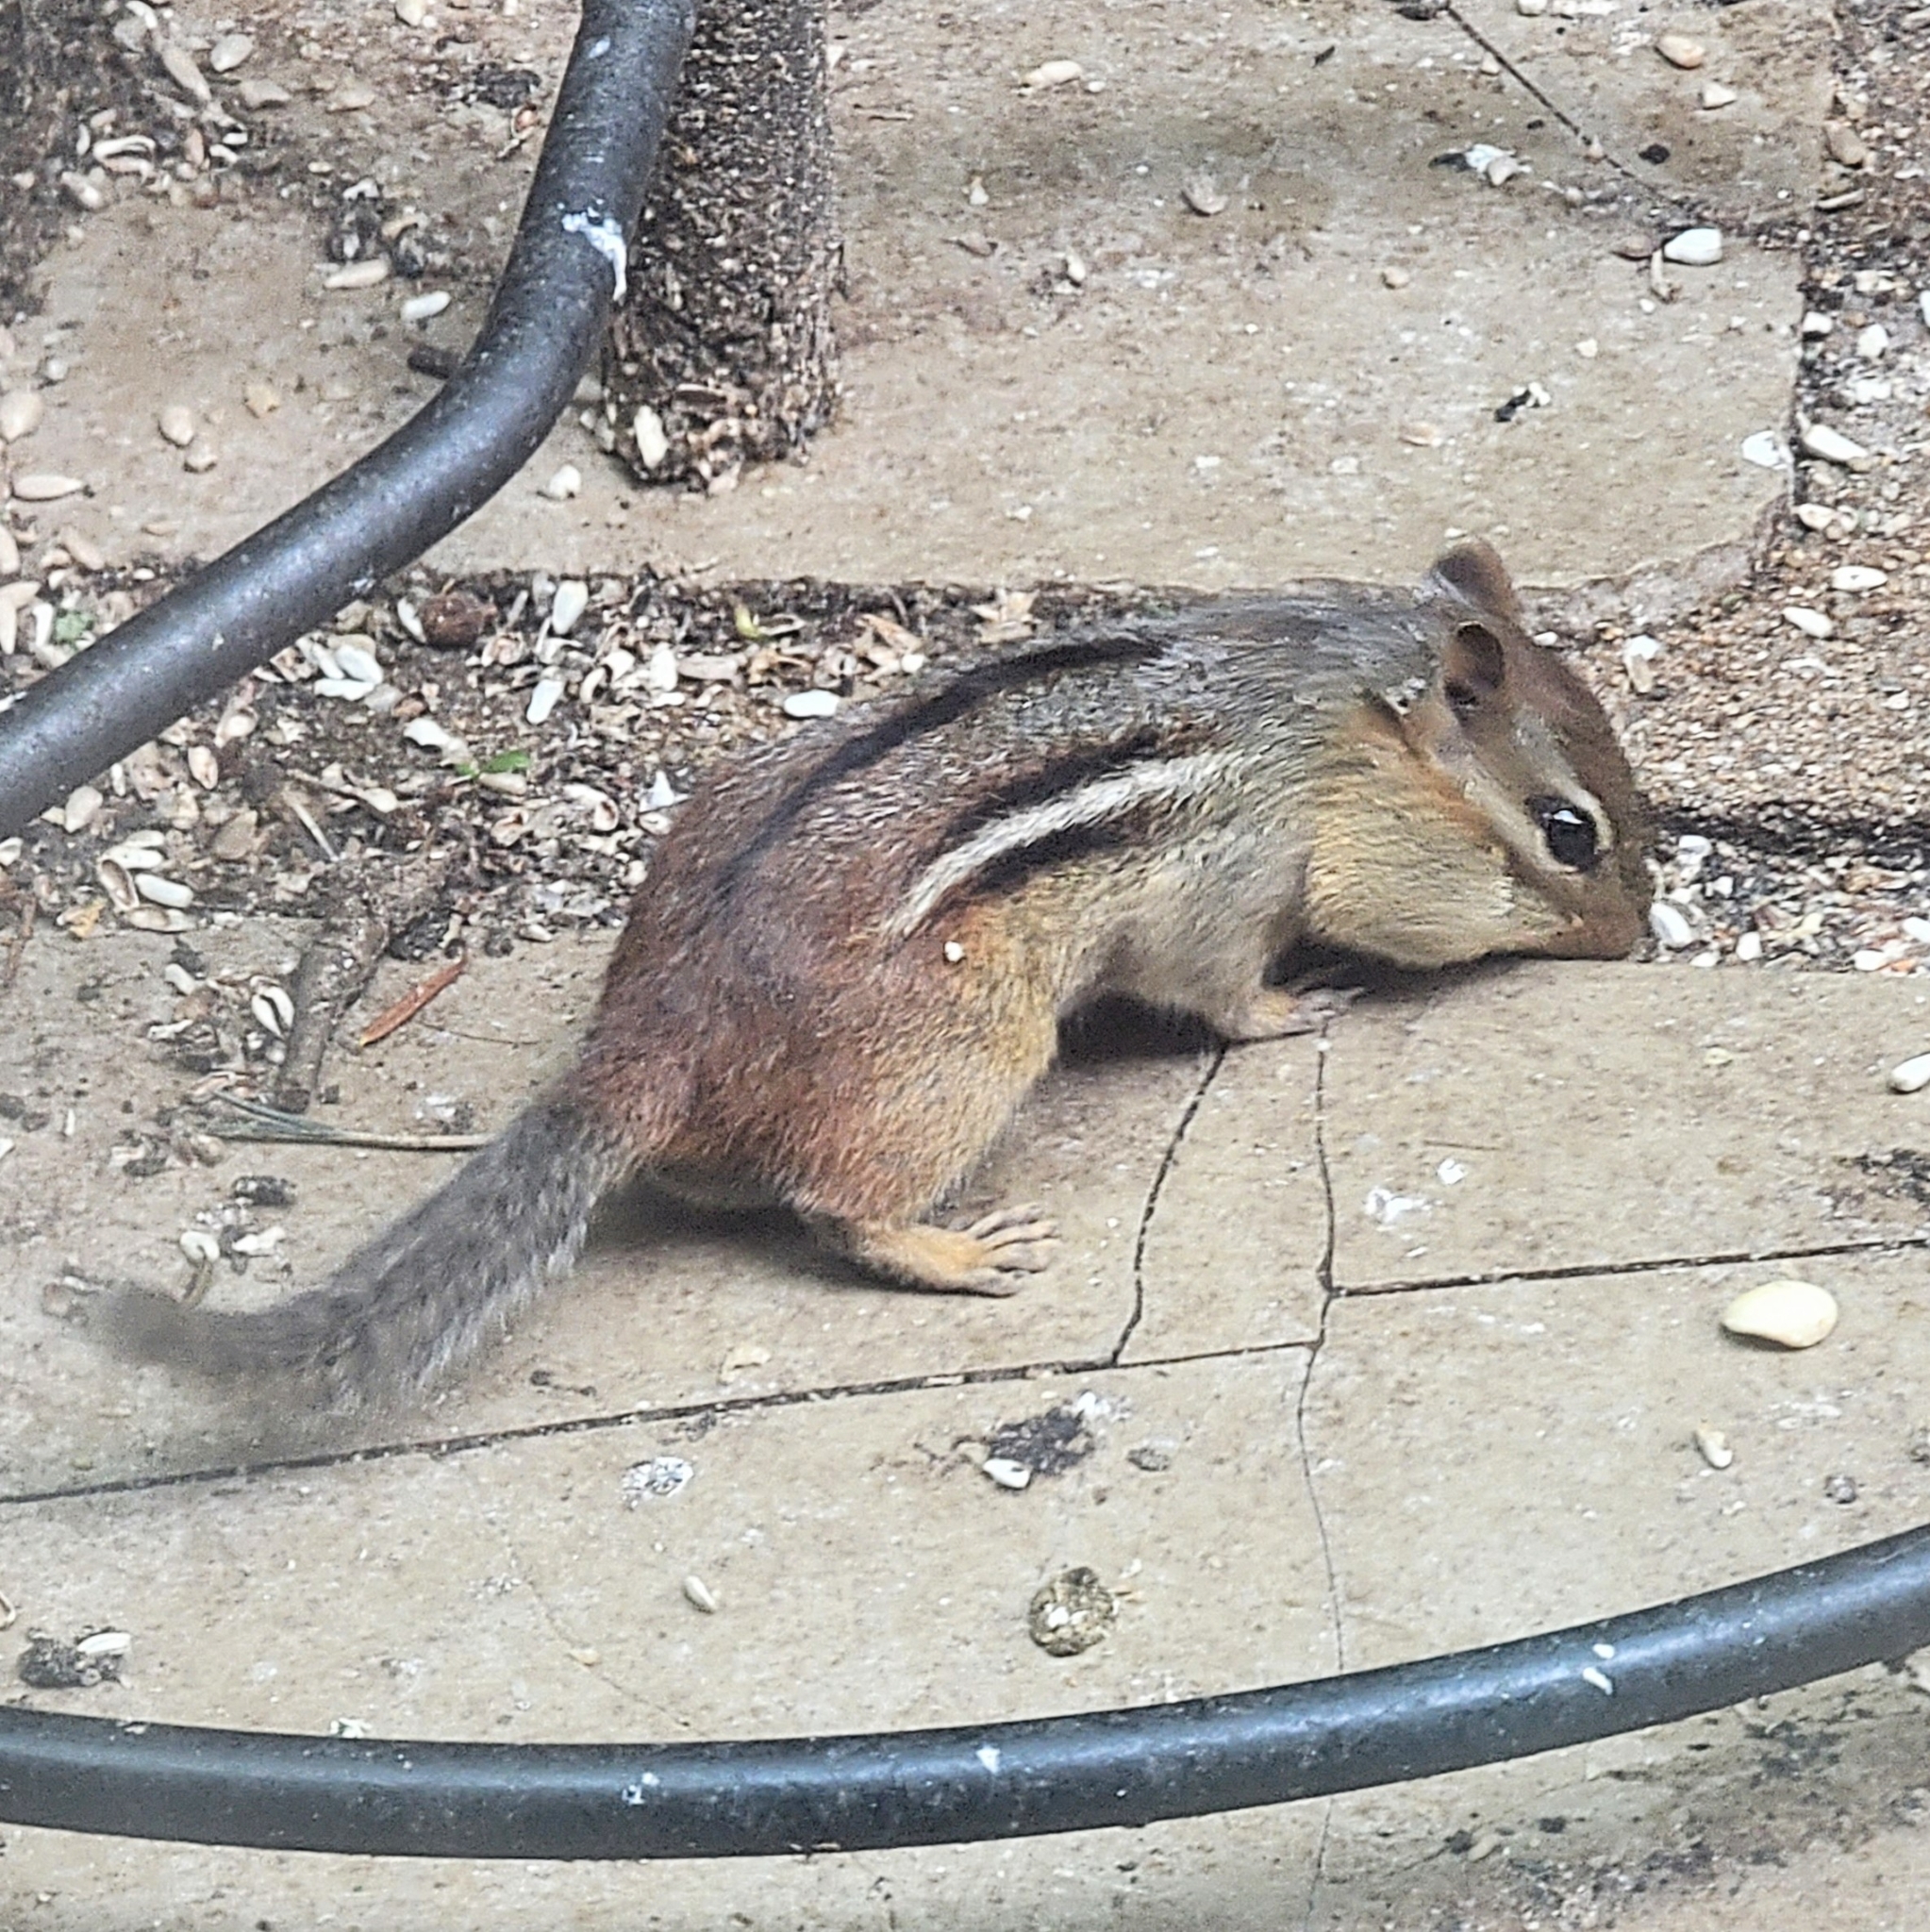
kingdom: Animalia
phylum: Chordata
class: Mammalia
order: Rodentia
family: Sciuridae
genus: Tamias
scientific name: Tamias striatus
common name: Eastern chipmunk
